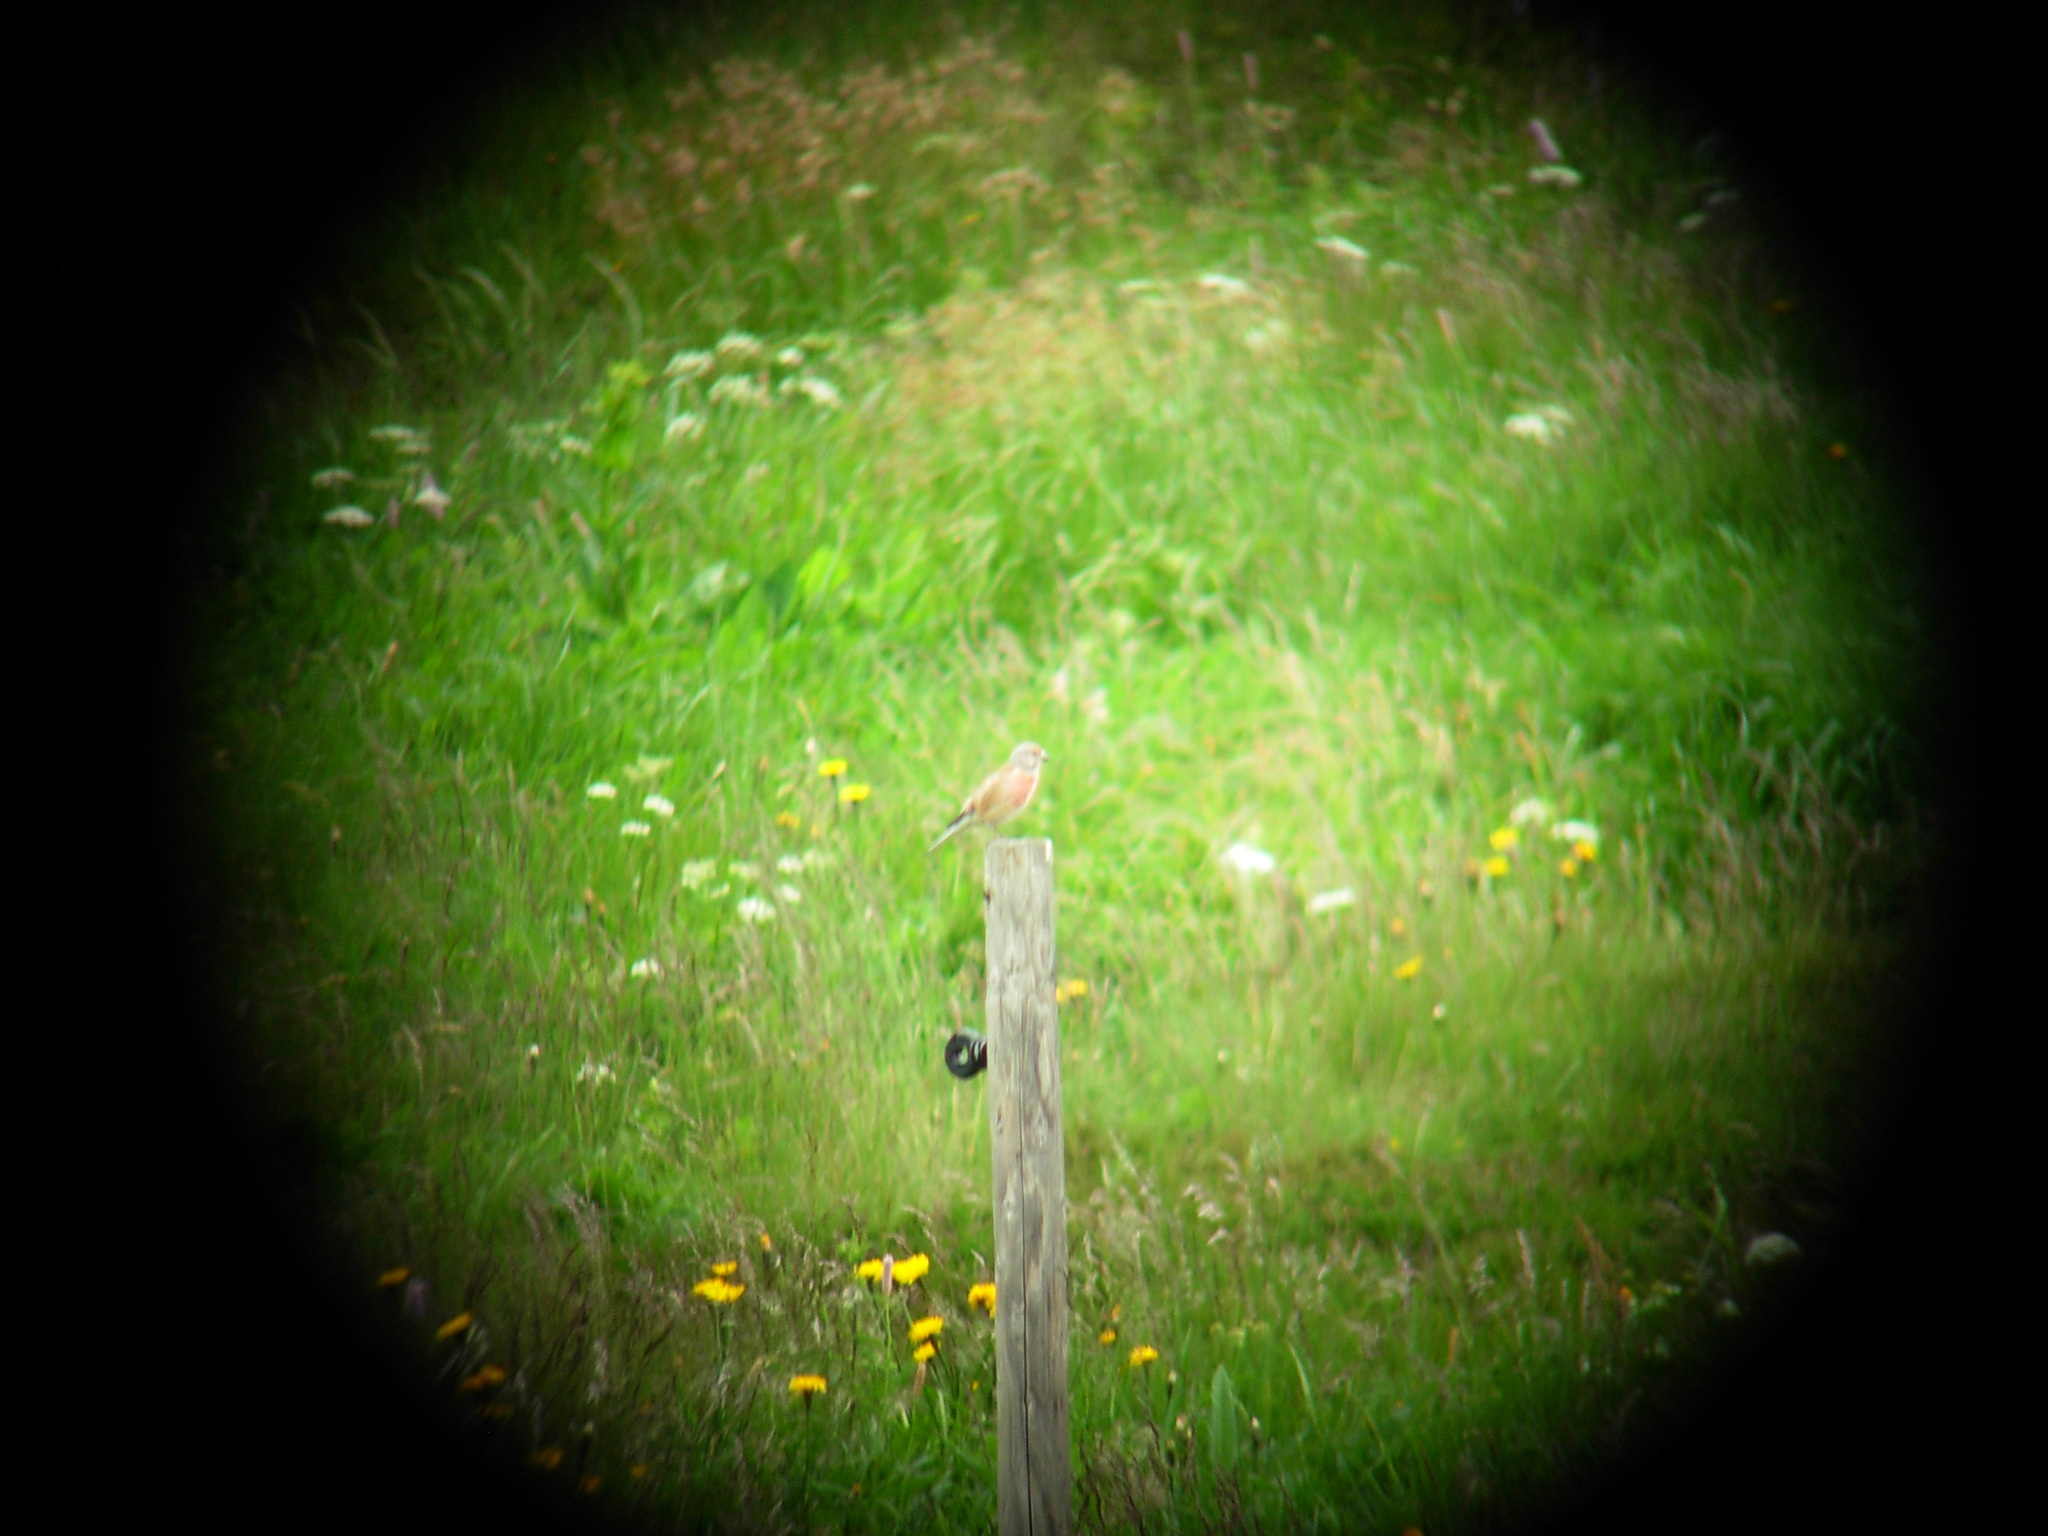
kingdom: Animalia
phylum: Chordata
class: Aves
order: Passeriformes
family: Fringillidae
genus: Linaria
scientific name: Linaria cannabina
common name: Common linnet
